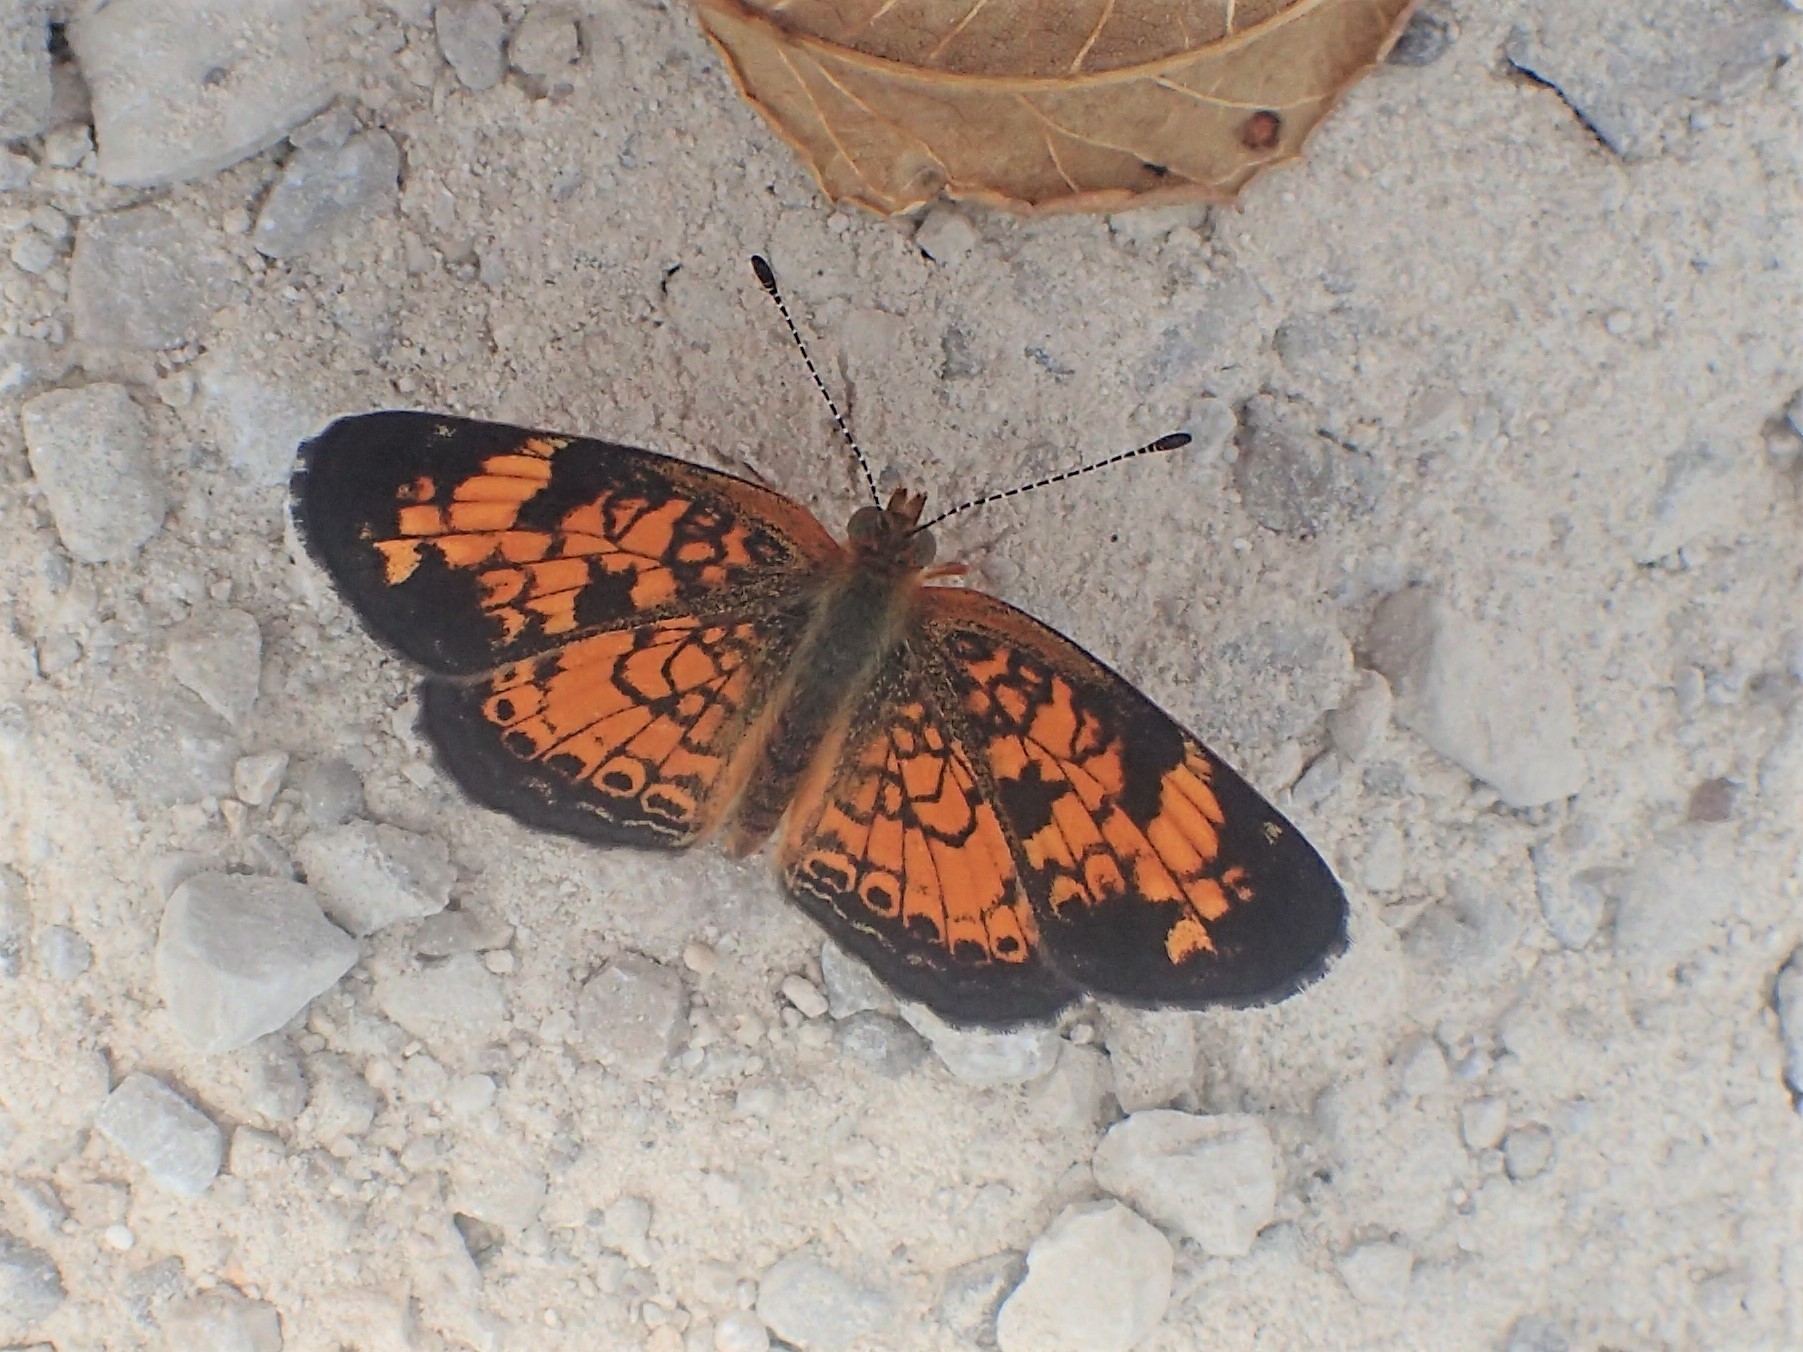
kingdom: Animalia
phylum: Arthropoda
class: Insecta
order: Lepidoptera
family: Nymphalidae
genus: Phyciodes
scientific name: Phyciodes tharos
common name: Pearl crescent
